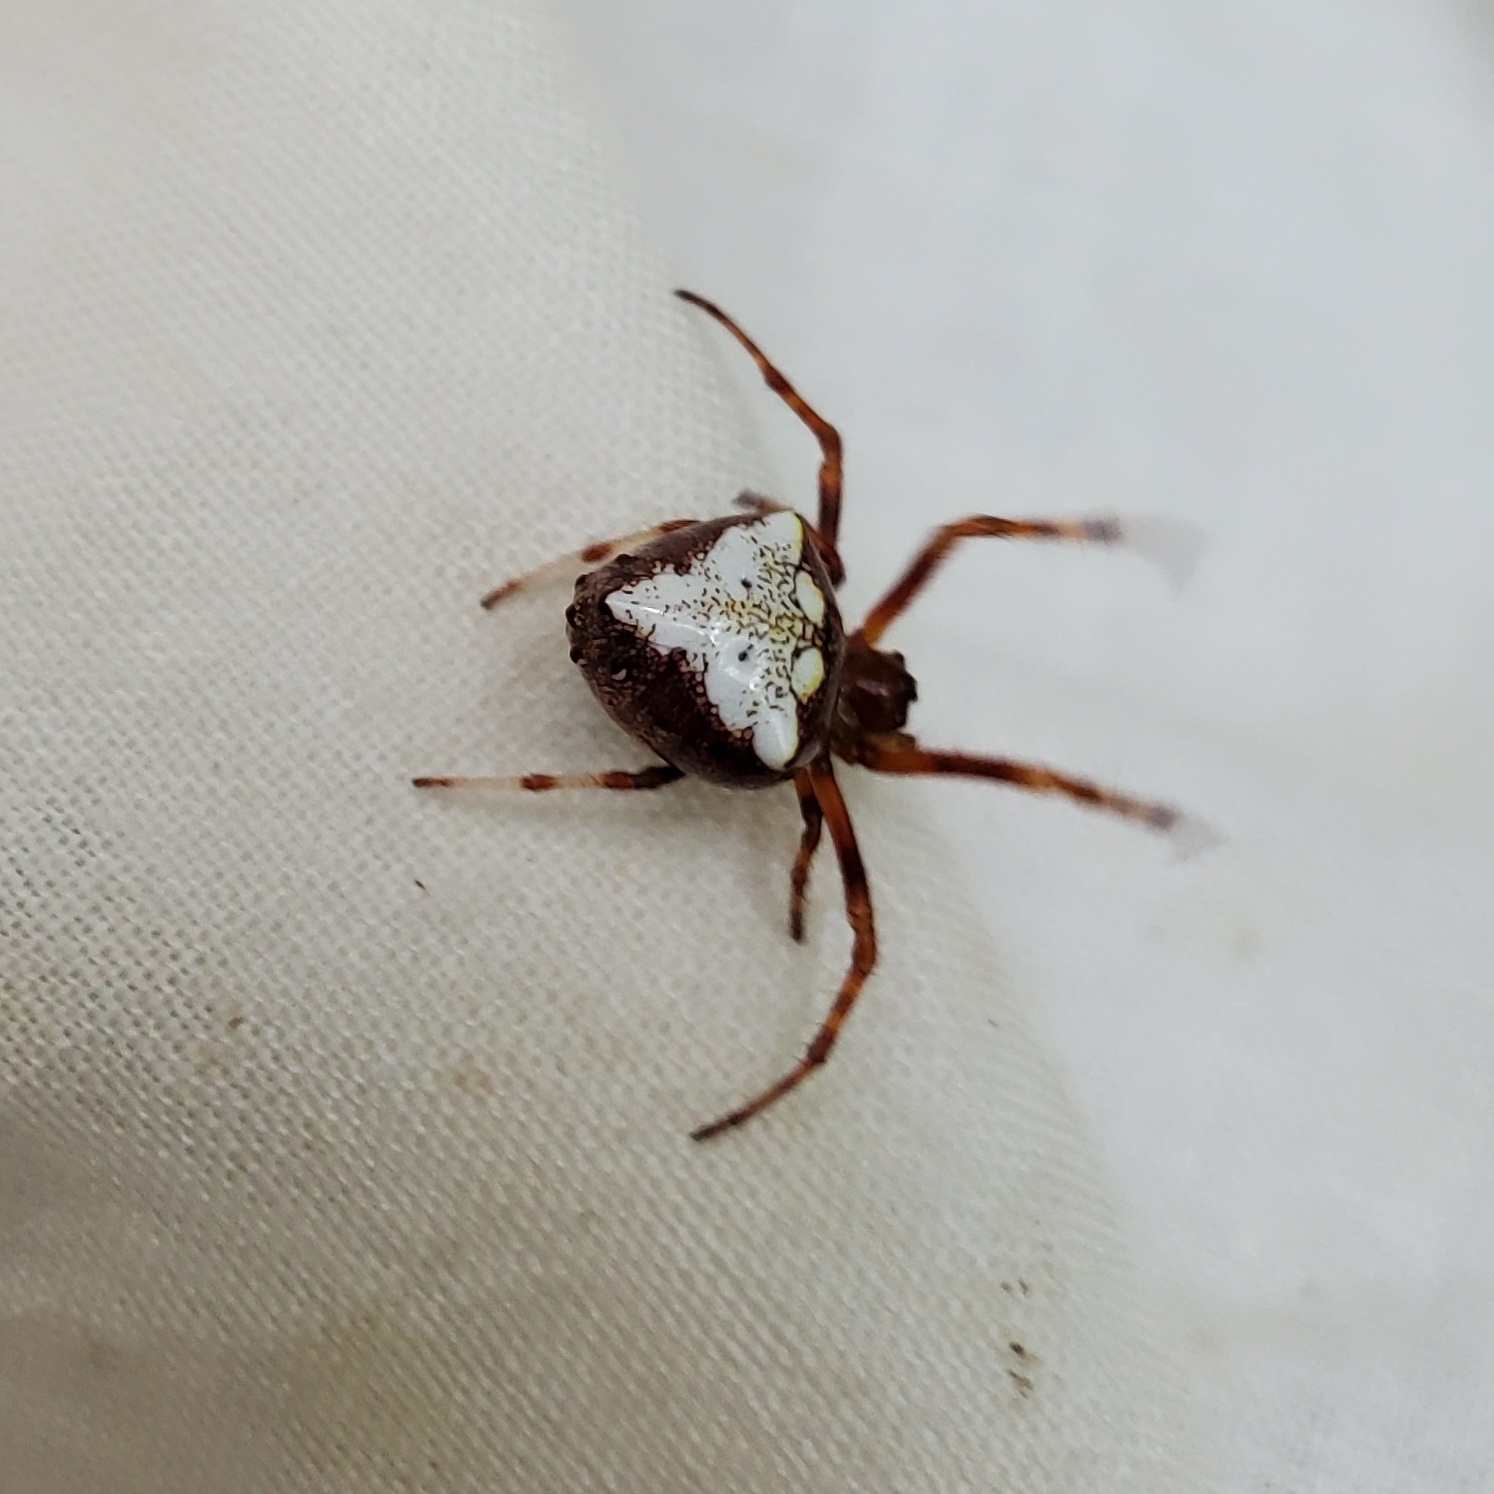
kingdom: Animalia
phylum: Arthropoda
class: Arachnida
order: Araneae
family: Araneidae
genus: Verrucosa
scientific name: Verrucosa arenata
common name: Orb weavers
